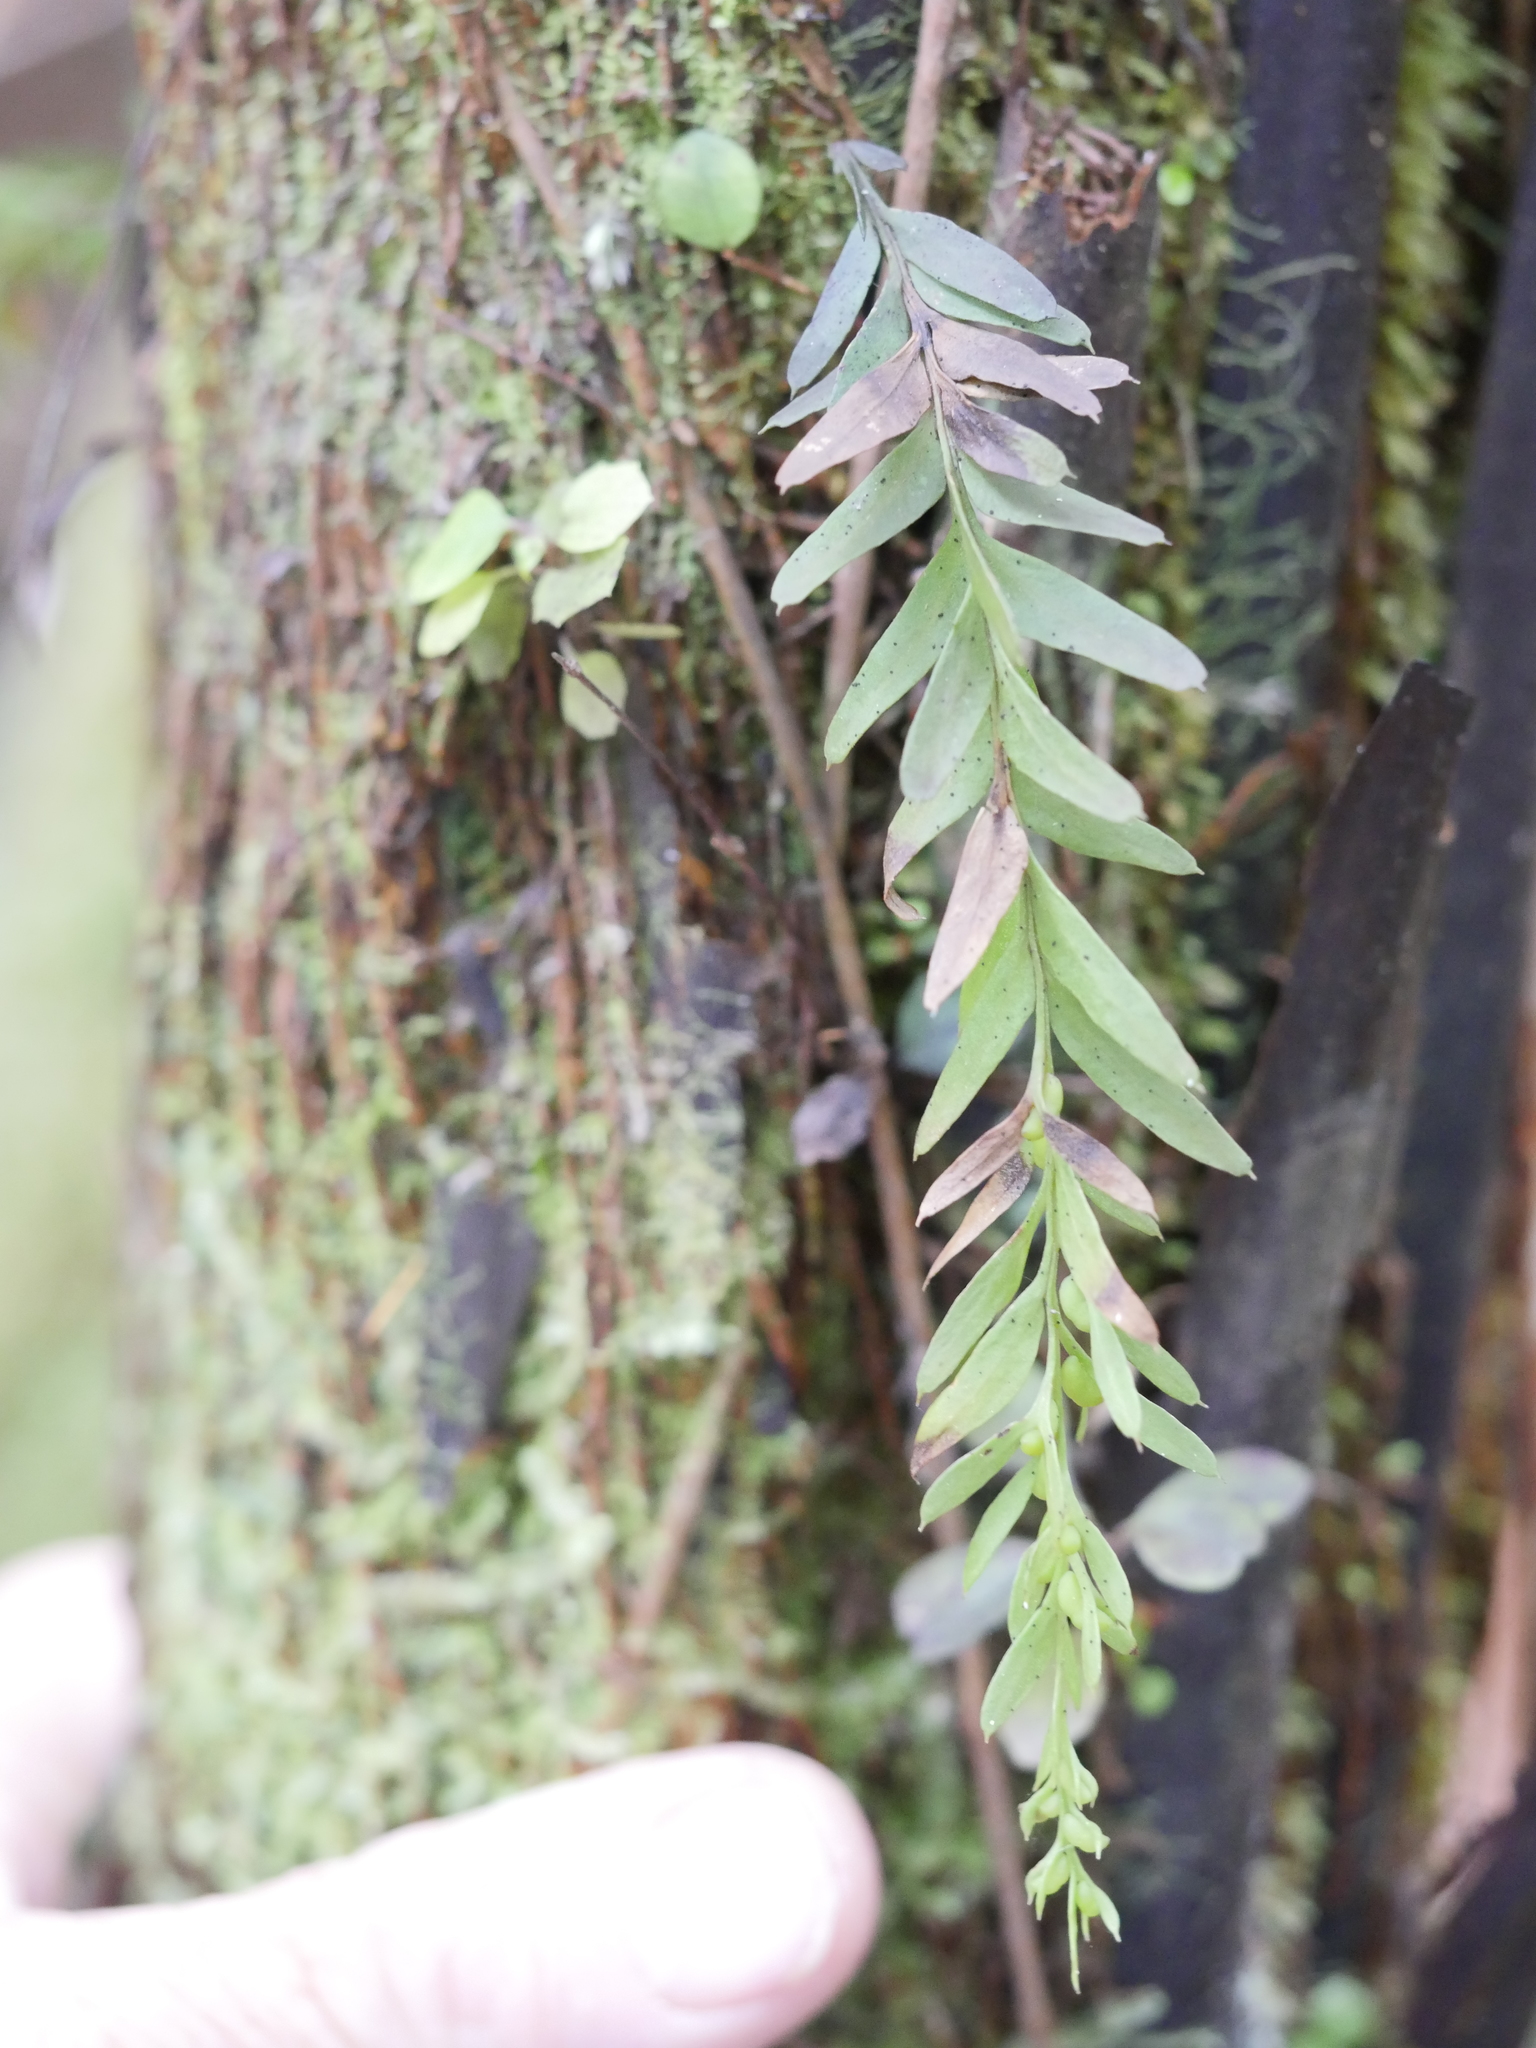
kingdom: Plantae
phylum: Tracheophyta
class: Polypodiopsida
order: Psilotales
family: Psilotaceae
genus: Tmesipteris
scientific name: Tmesipteris elongata
